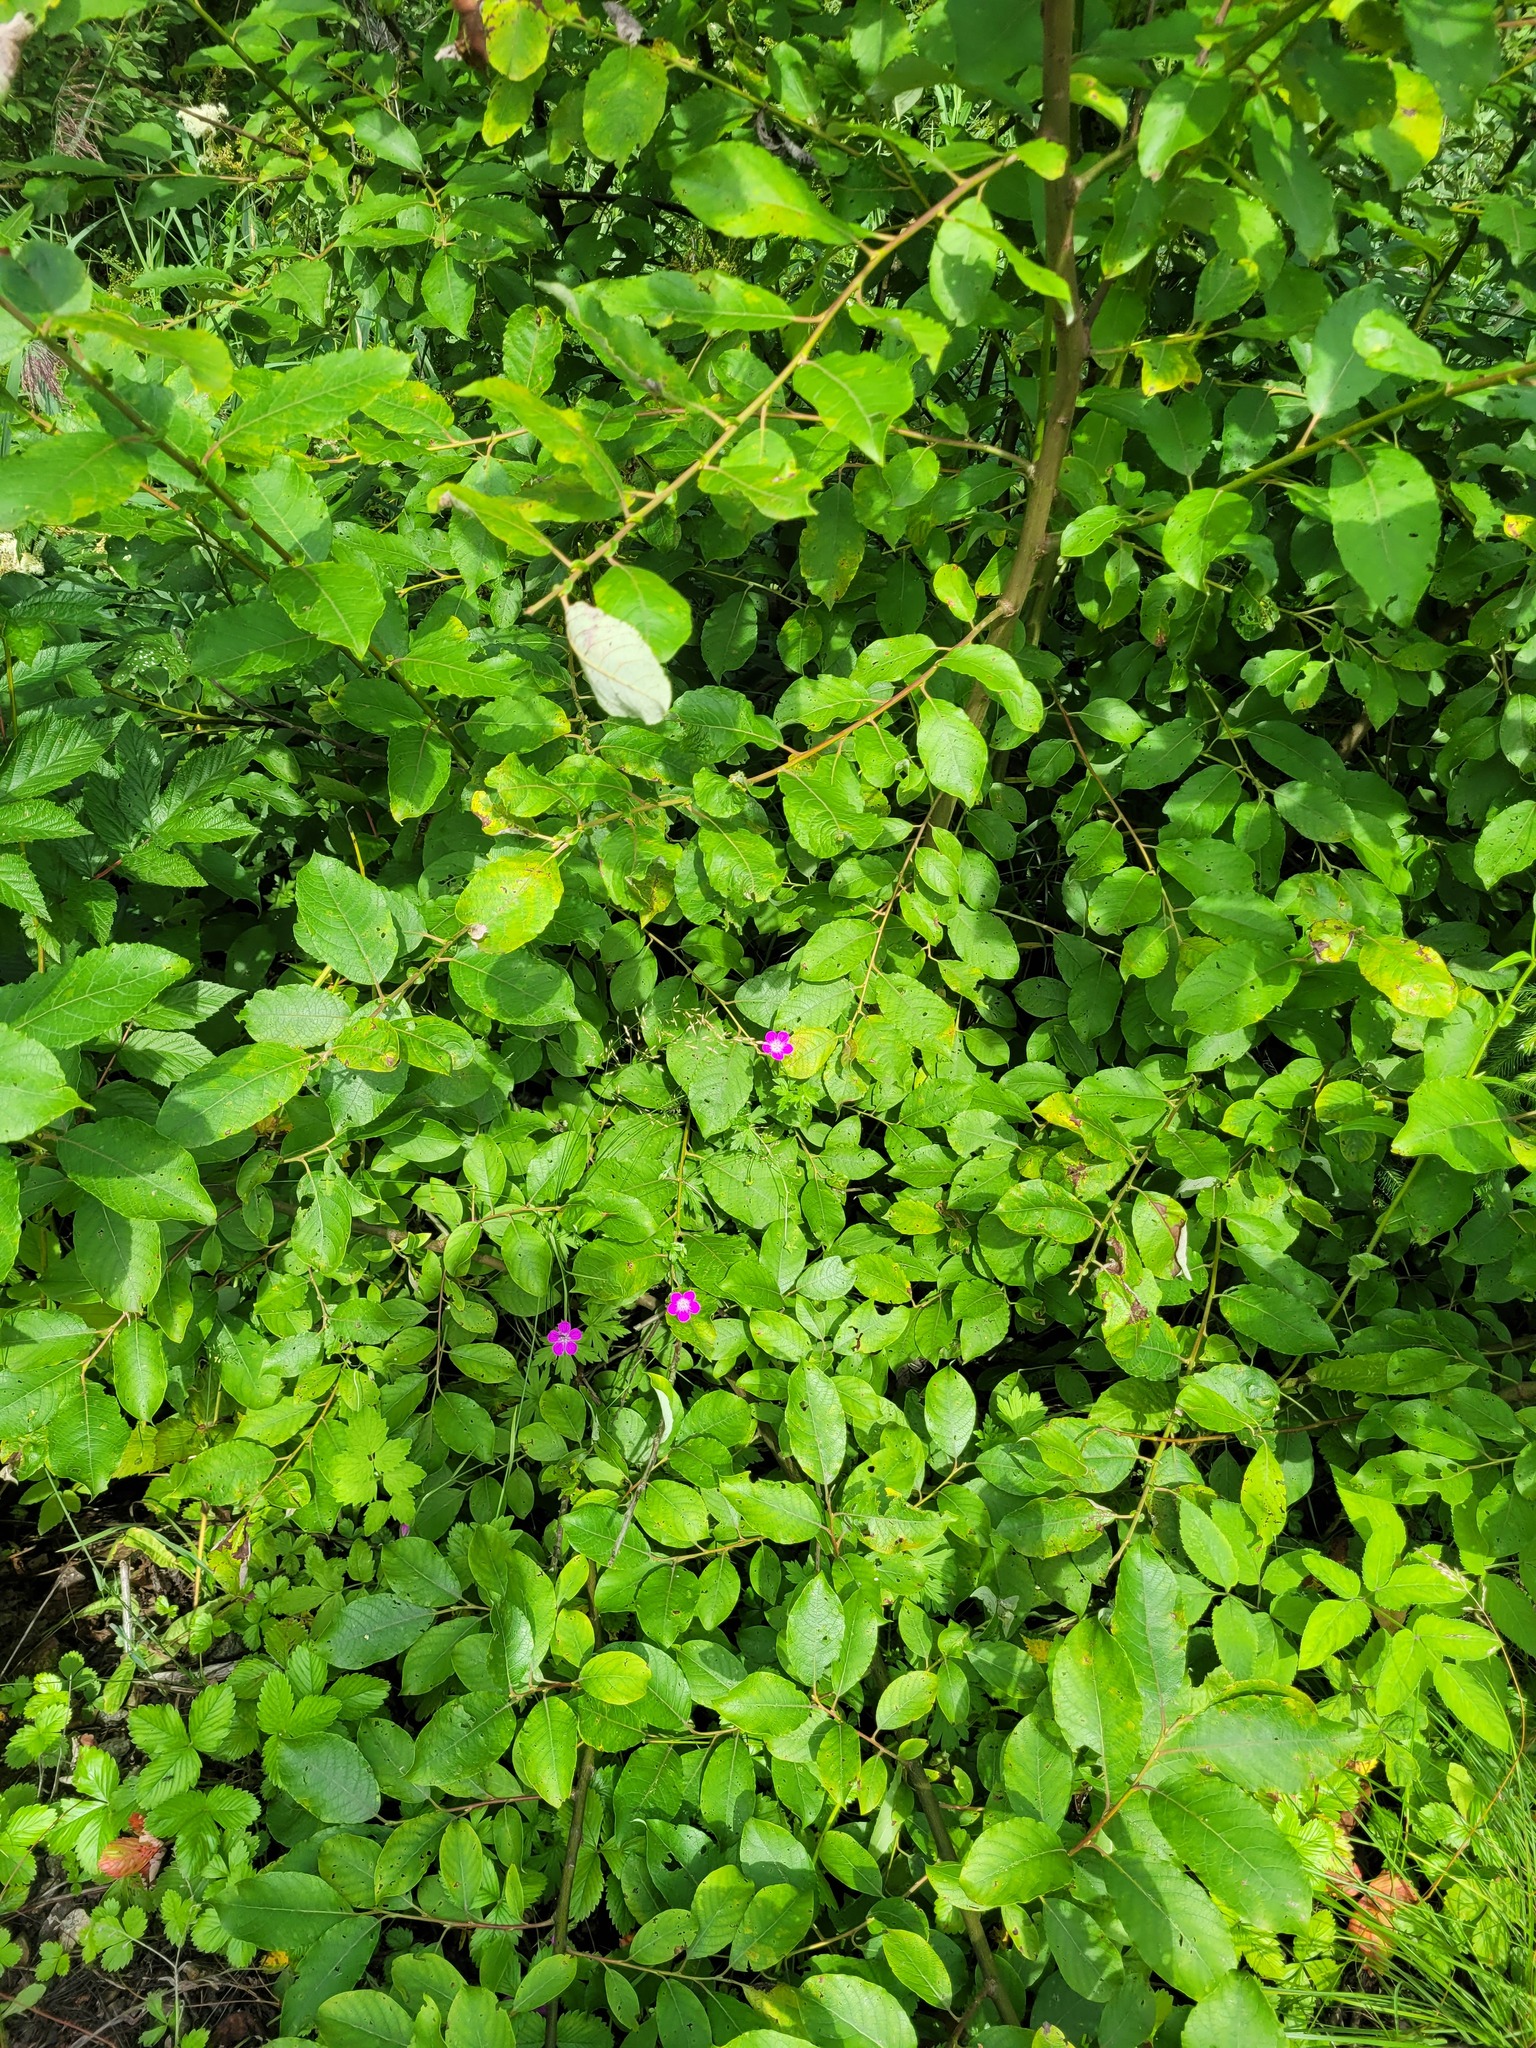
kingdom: Plantae
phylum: Tracheophyta
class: Magnoliopsida
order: Geraniales
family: Geraniaceae
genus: Geranium
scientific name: Geranium palustre
